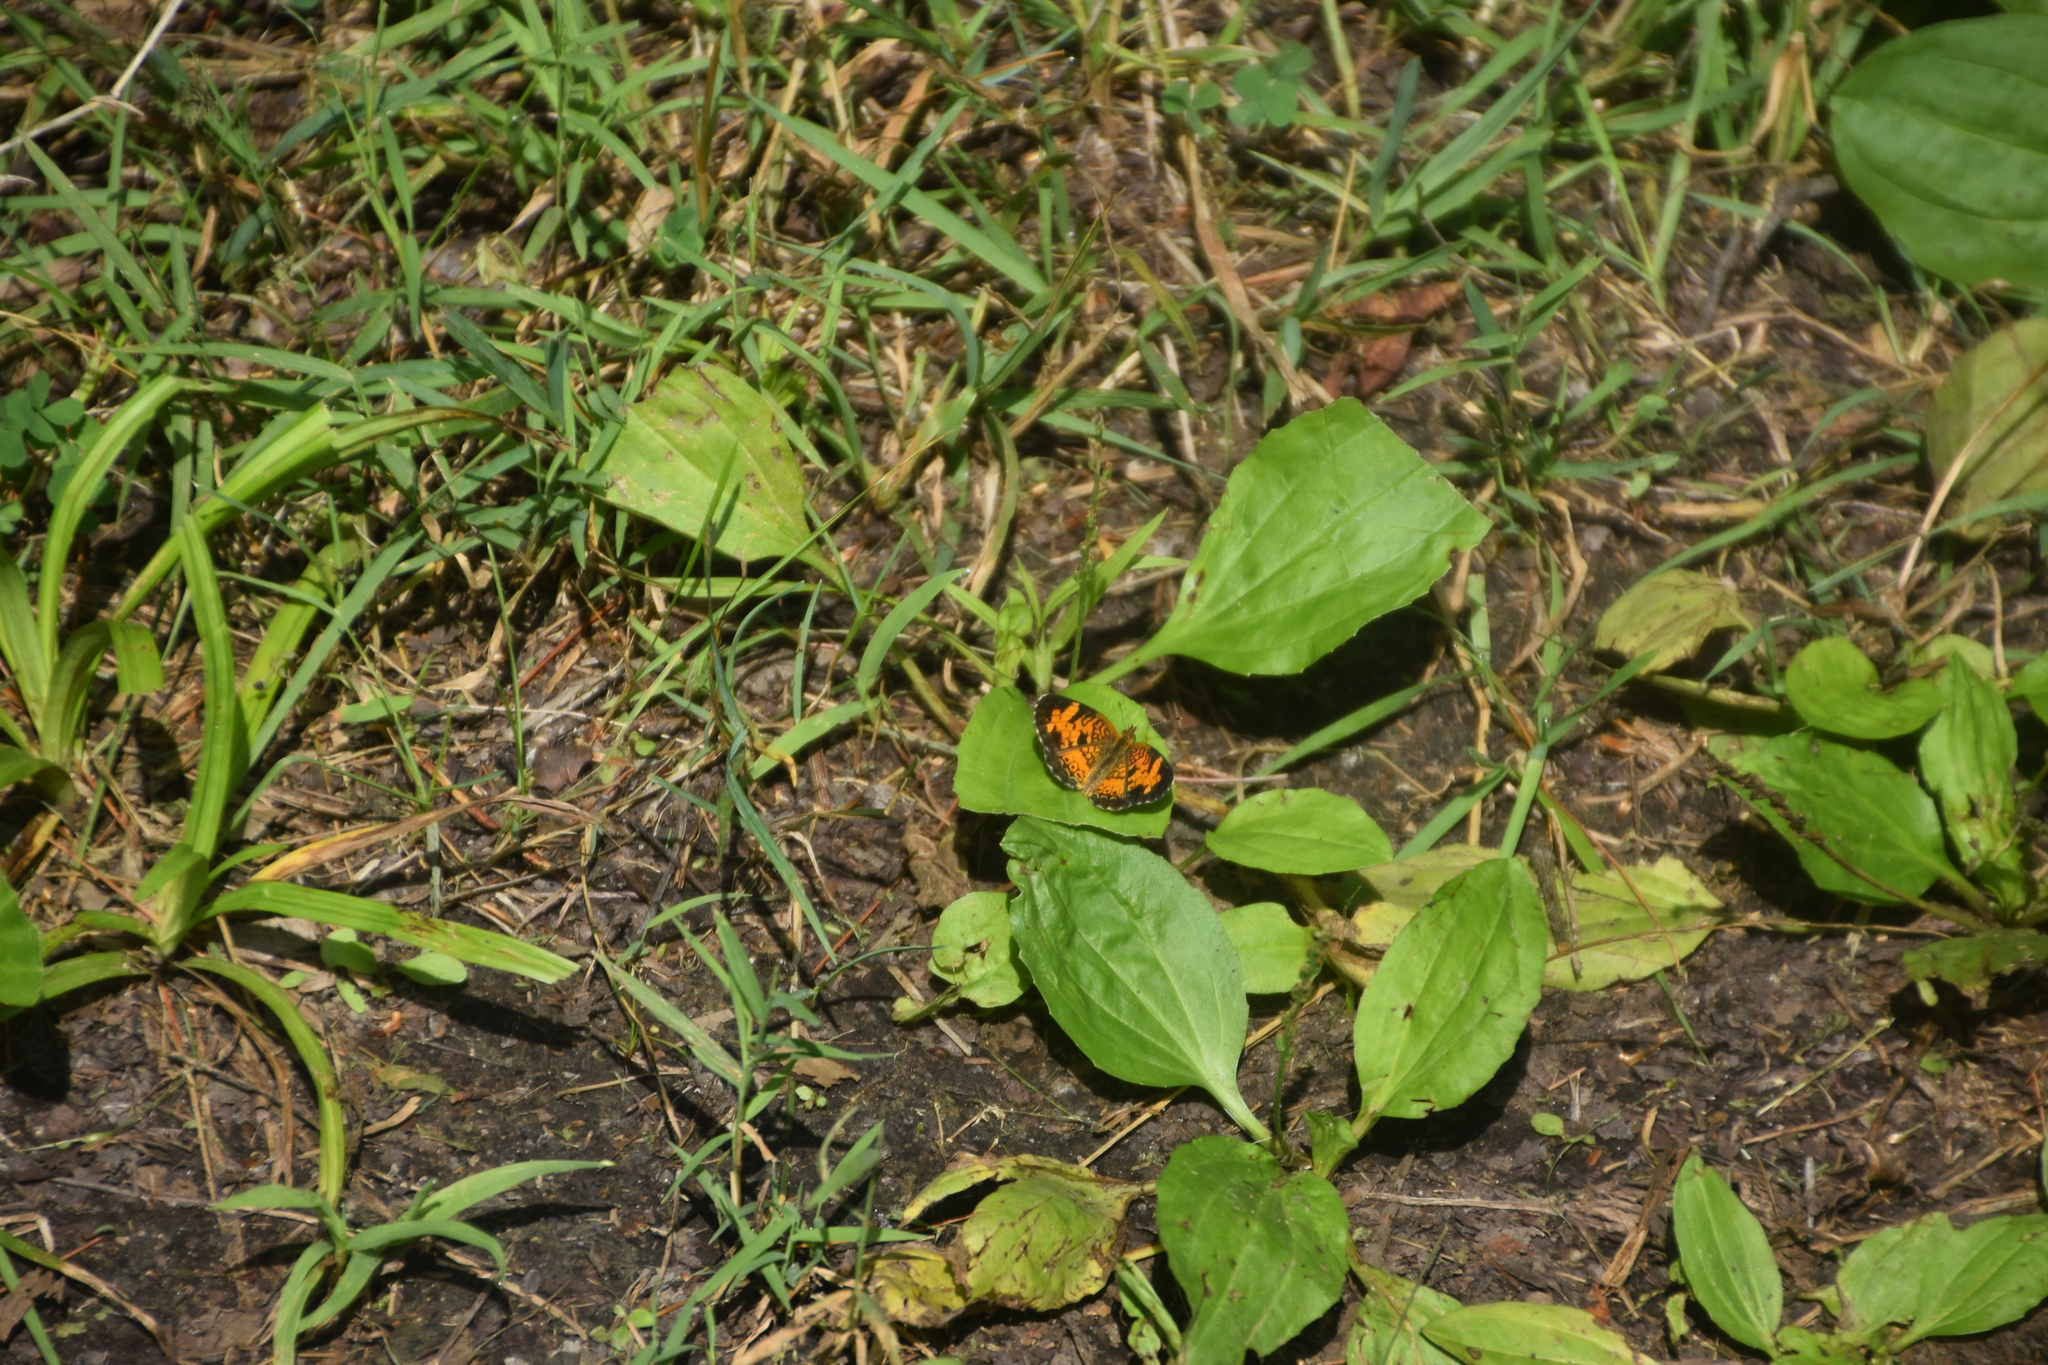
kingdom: Animalia
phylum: Arthropoda
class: Insecta
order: Lepidoptera
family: Nymphalidae
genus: Phyciodes
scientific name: Phyciodes tharos
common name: Pearl crescent
